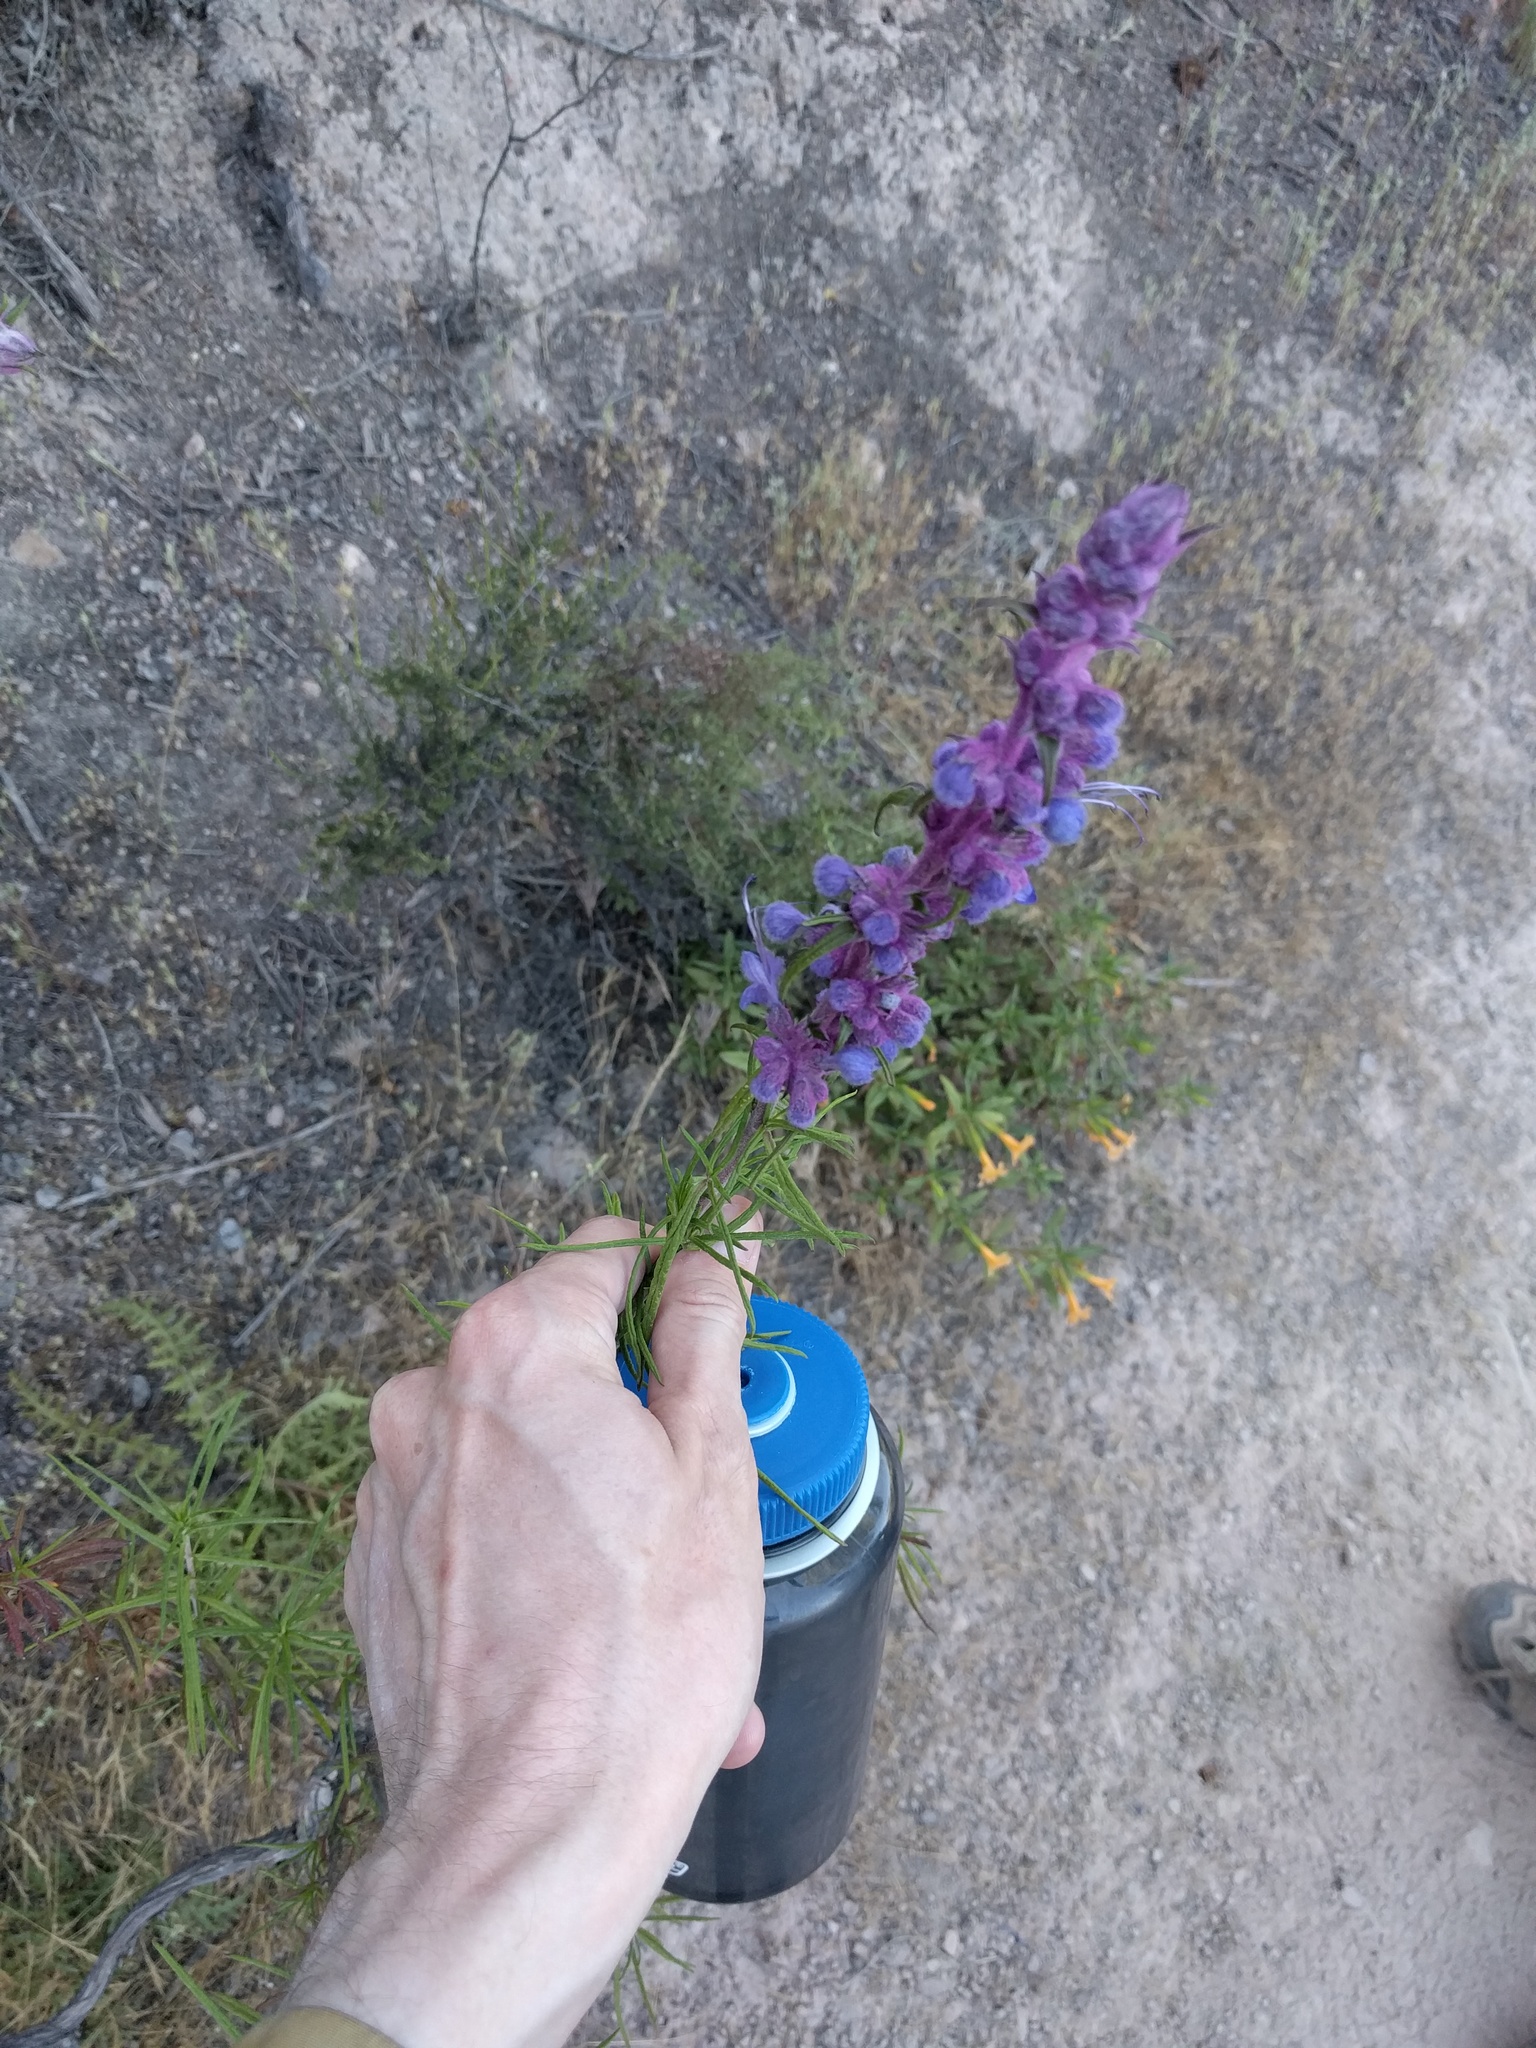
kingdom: Plantae
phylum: Tracheophyta
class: Magnoliopsida
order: Lamiales
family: Lamiaceae
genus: Trichostema
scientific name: Trichostema lanatum
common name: Woolly bluecurls
